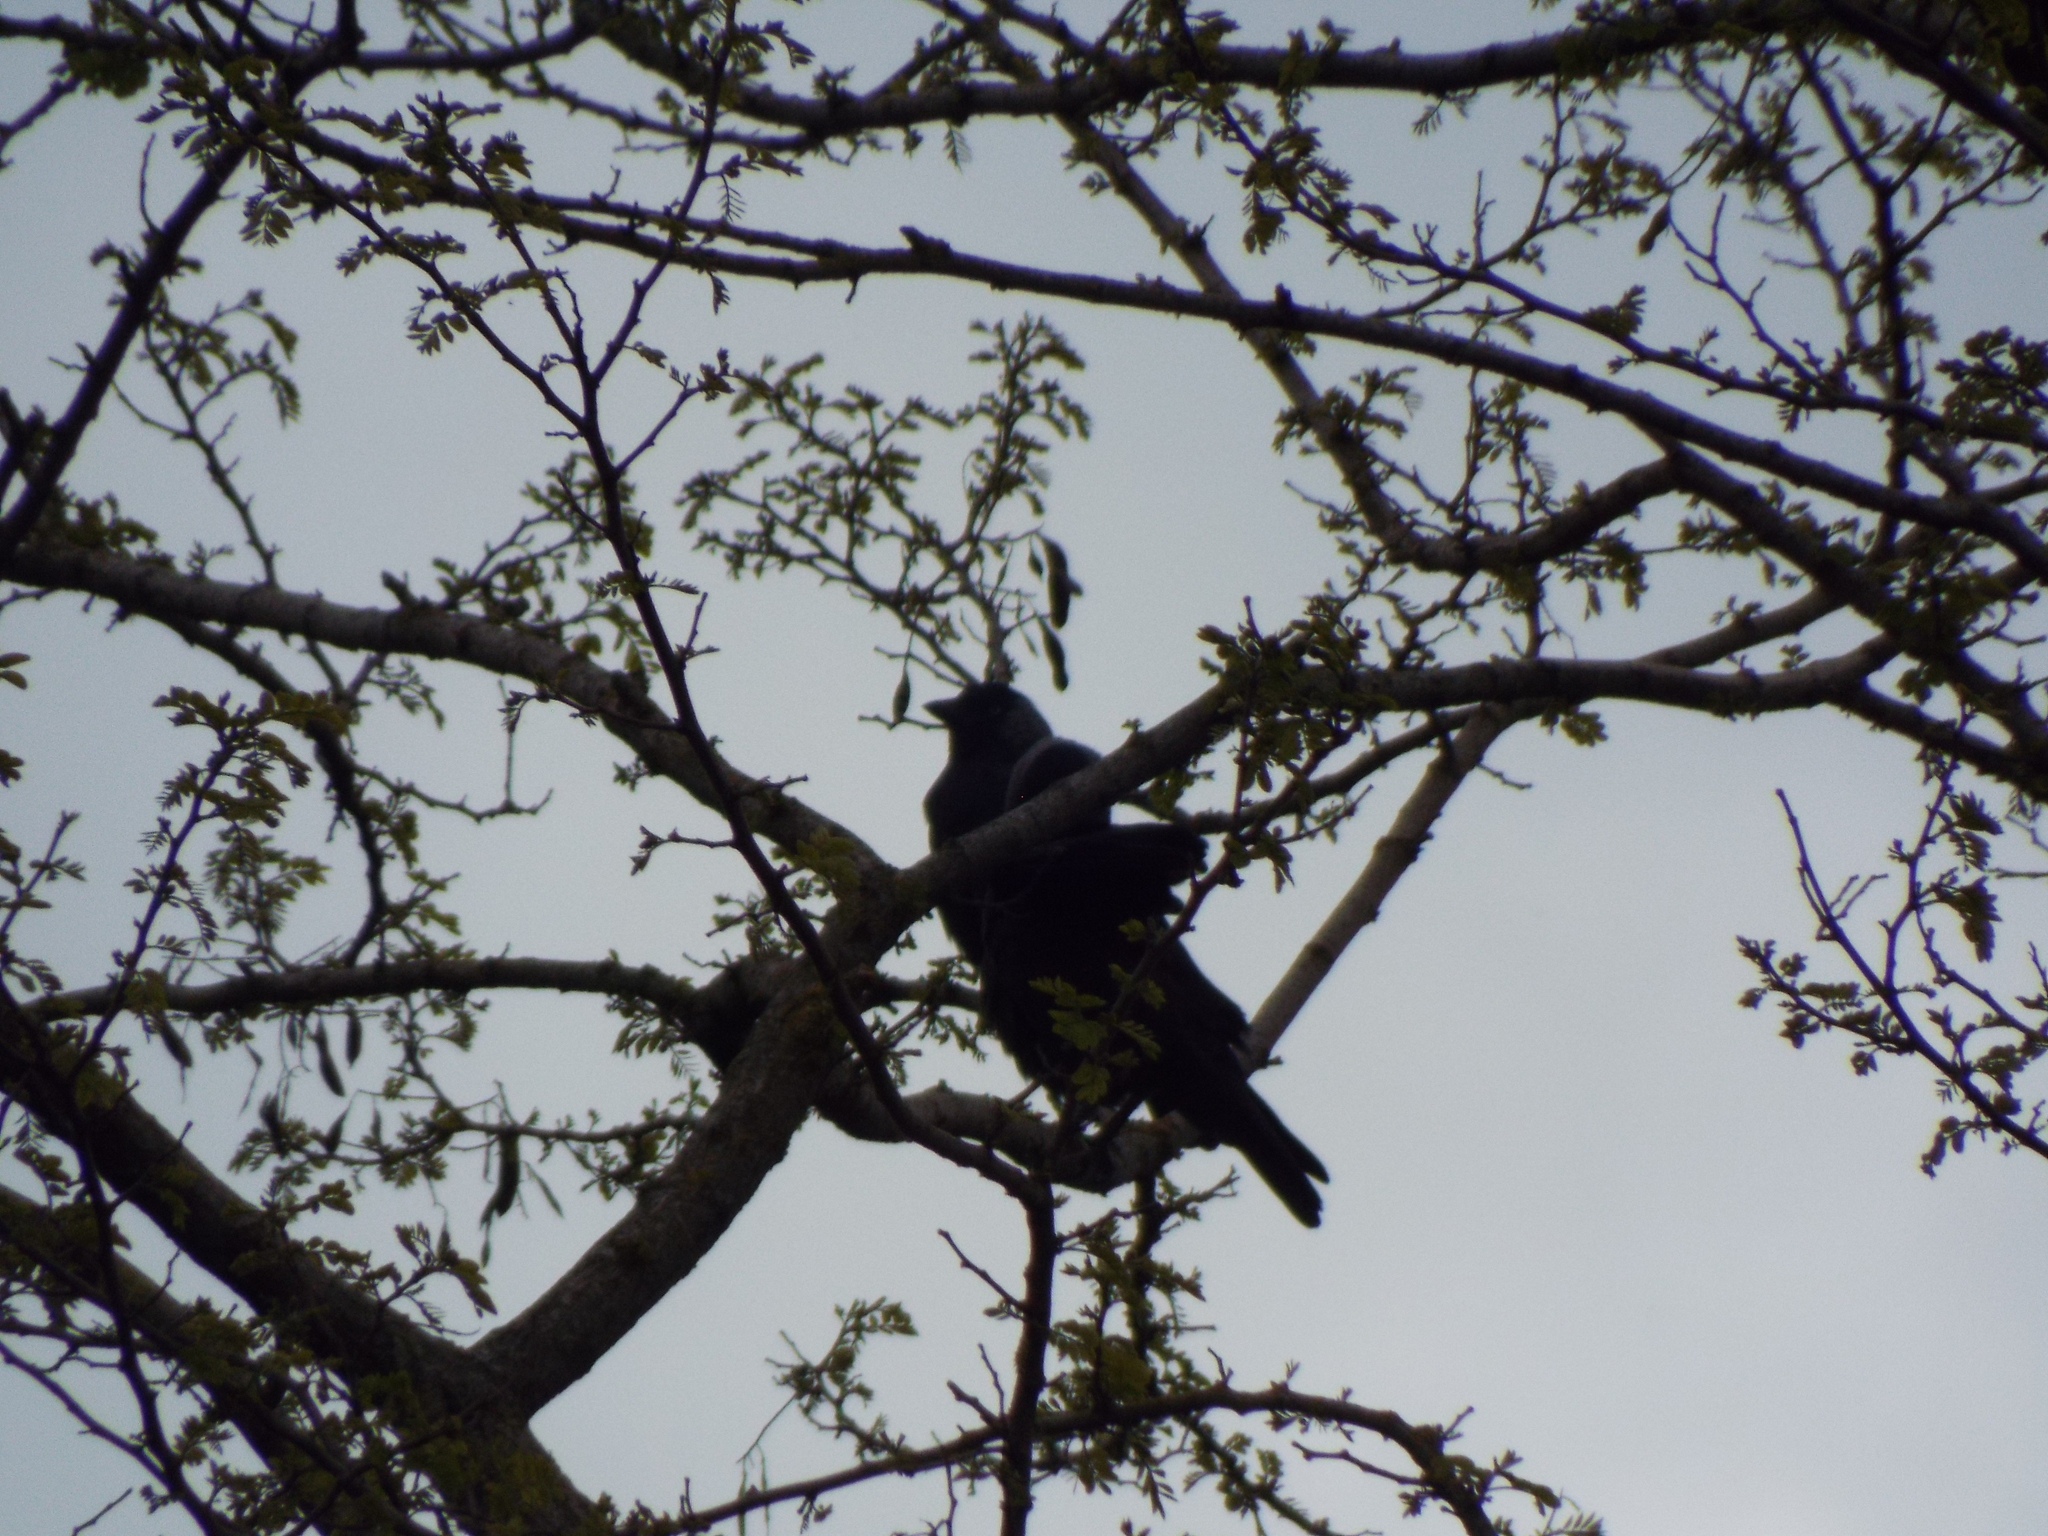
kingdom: Animalia
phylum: Chordata
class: Aves
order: Passeriformes
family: Corvidae
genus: Coloeus
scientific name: Coloeus monedula
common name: Western jackdaw
